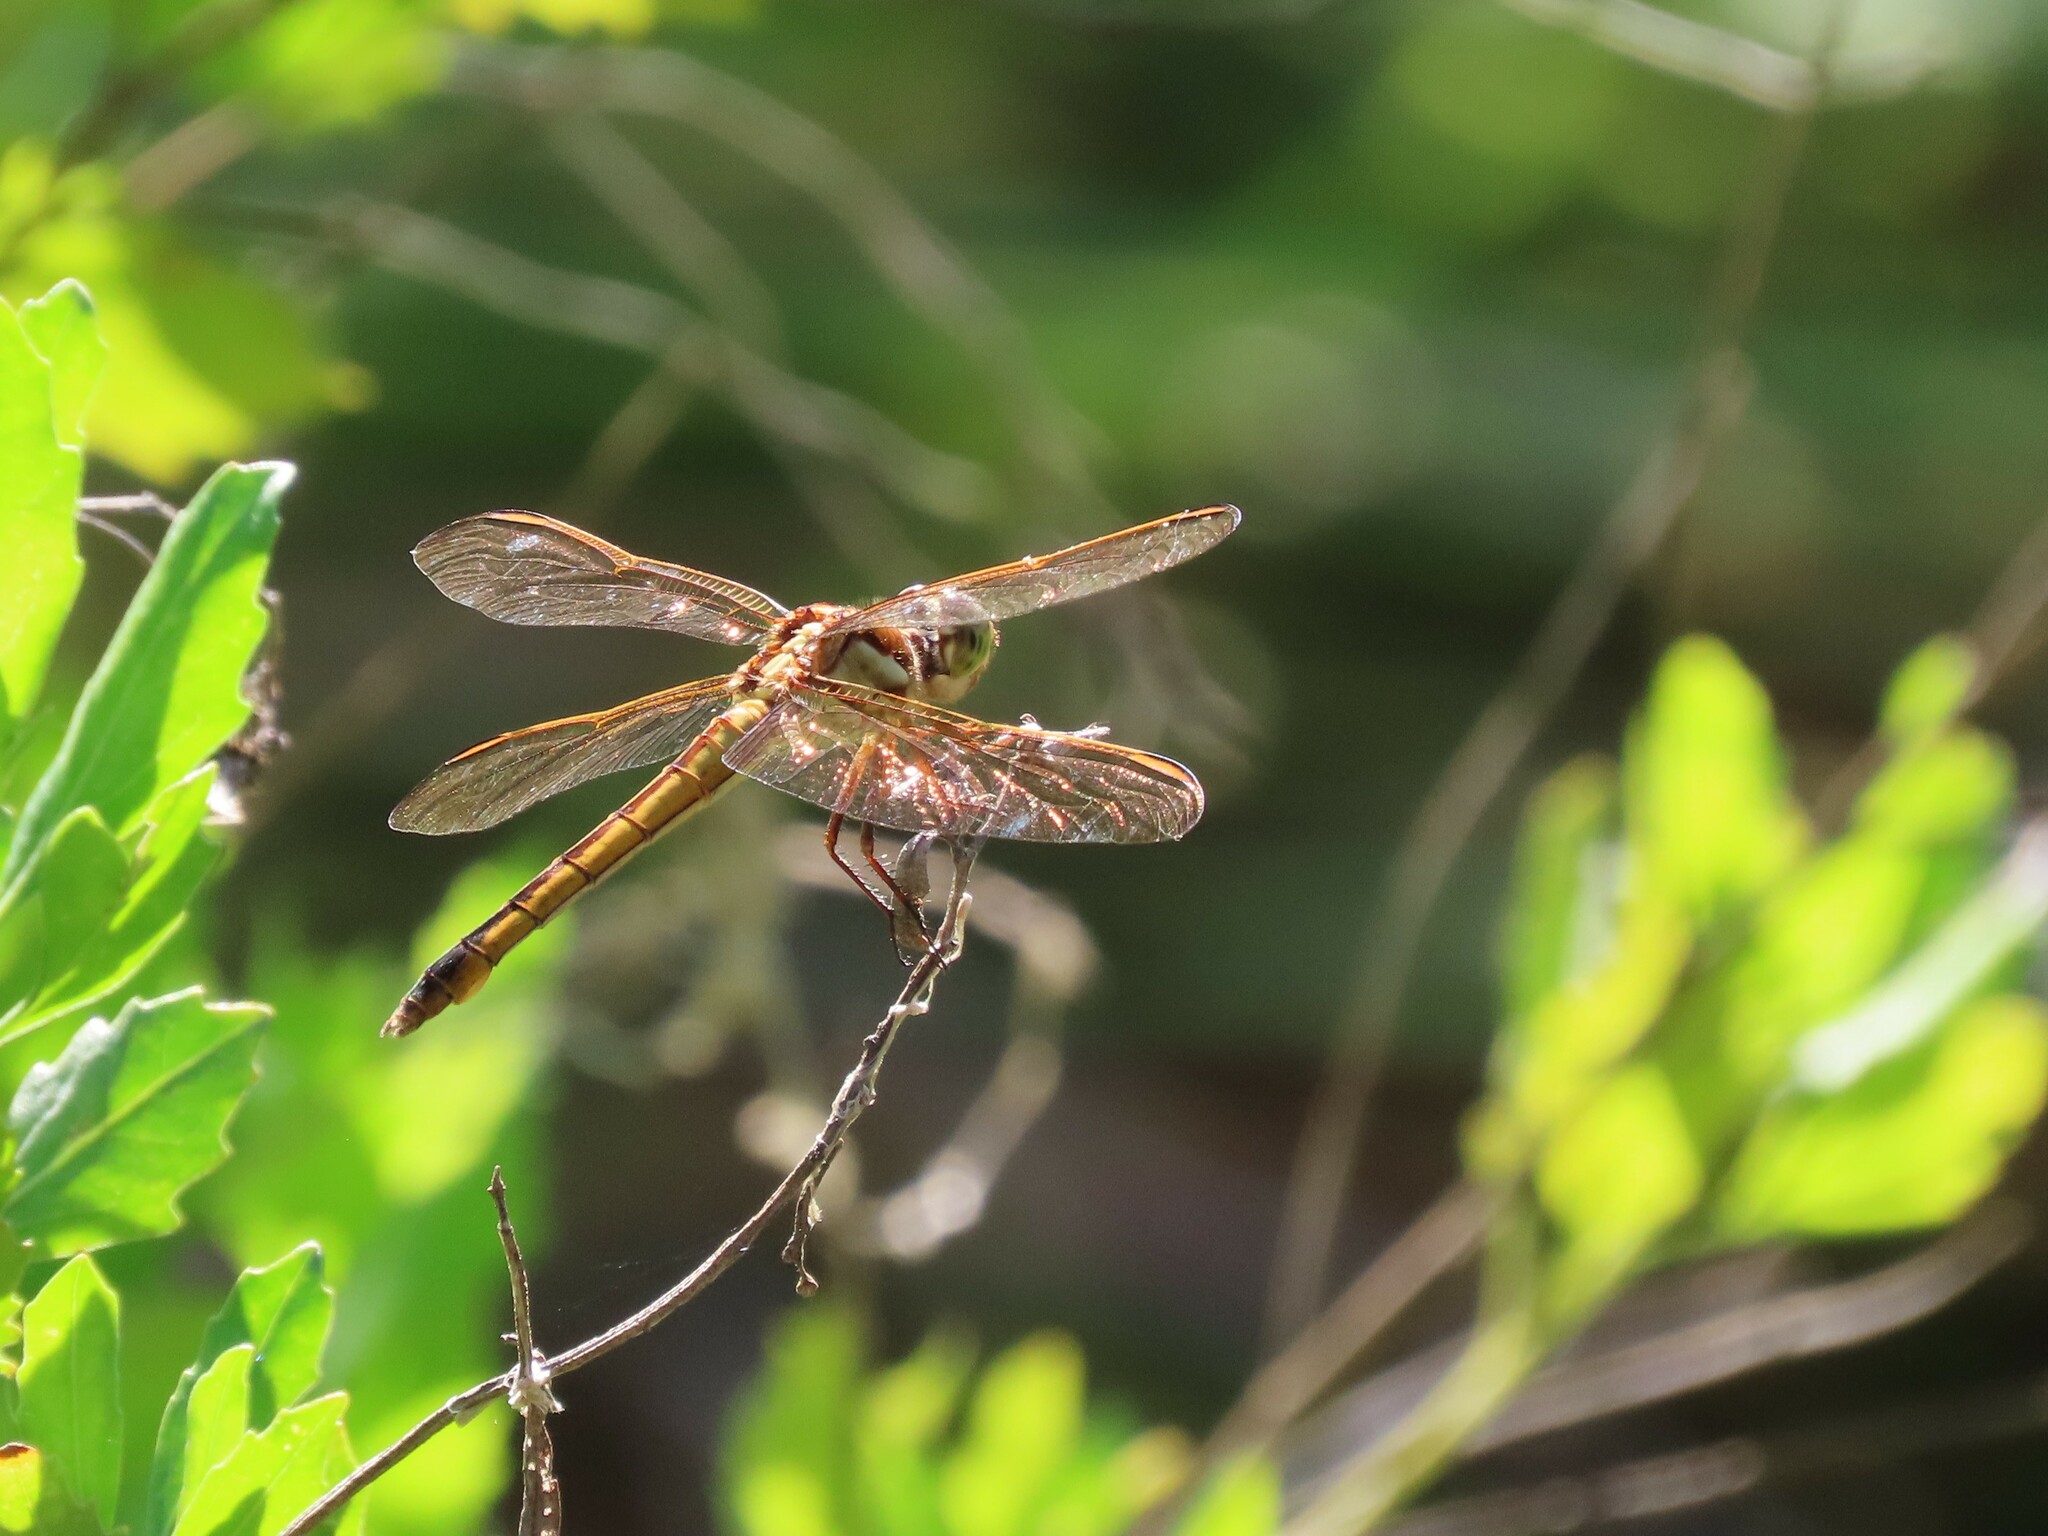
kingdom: Animalia
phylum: Arthropoda
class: Insecta
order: Odonata
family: Libellulidae
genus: Libellula
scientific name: Libellula needhami
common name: Needham's skimmer
